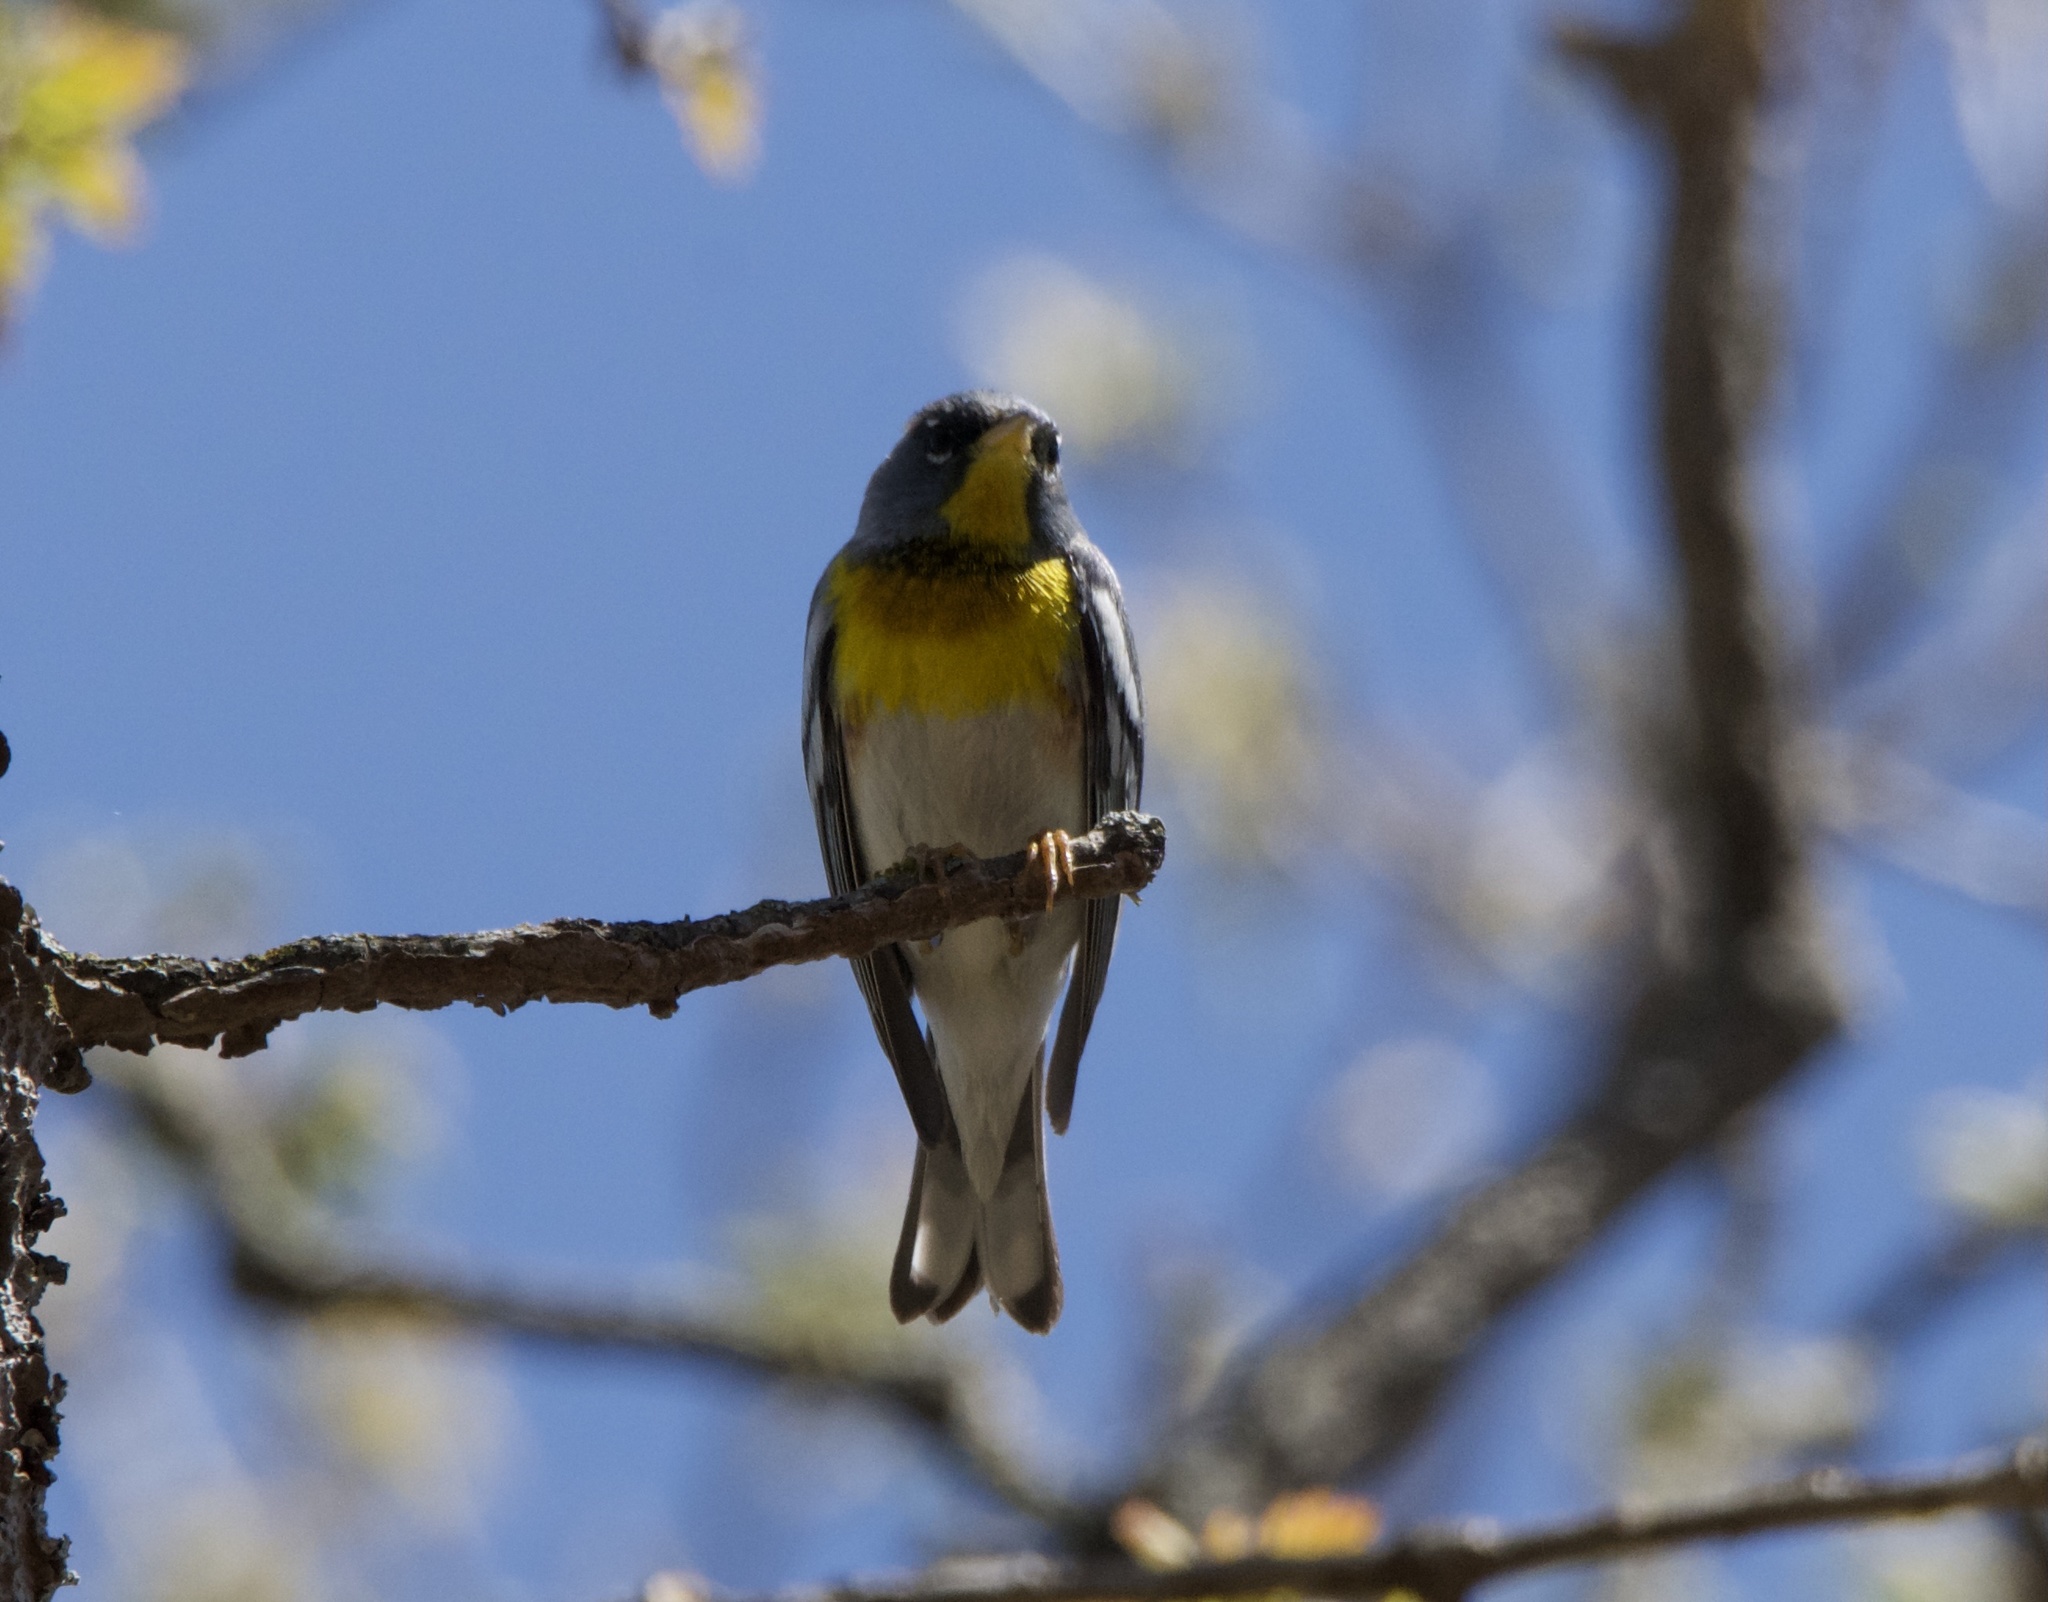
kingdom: Animalia
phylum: Chordata
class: Aves
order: Passeriformes
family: Parulidae
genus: Setophaga
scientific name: Setophaga americana
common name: Northern parula
